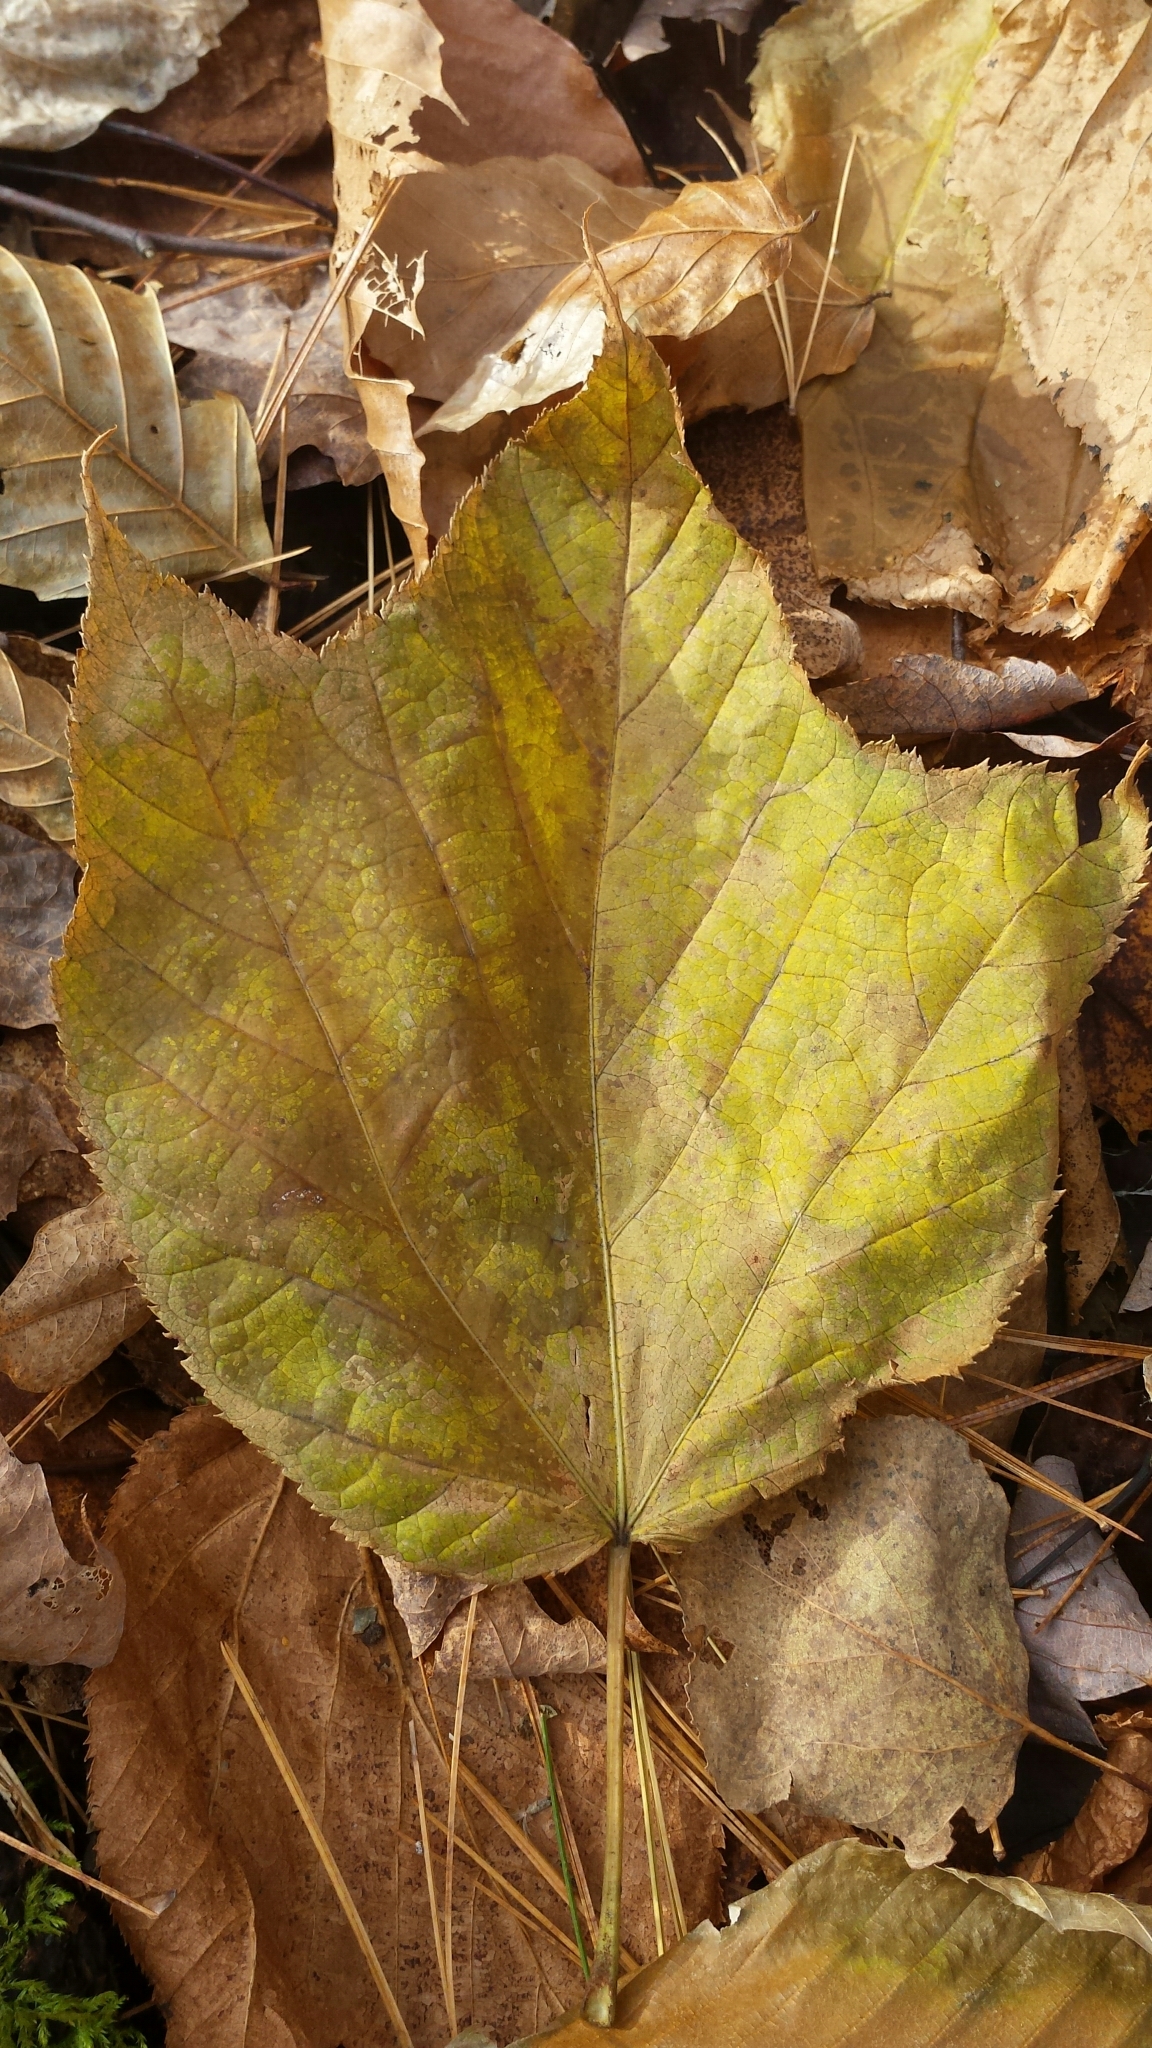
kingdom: Plantae
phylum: Tracheophyta
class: Magnoliopsida
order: Sapindales
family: Sapindaceae
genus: Acer
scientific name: Acer pensylvanicum
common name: Moosewood
